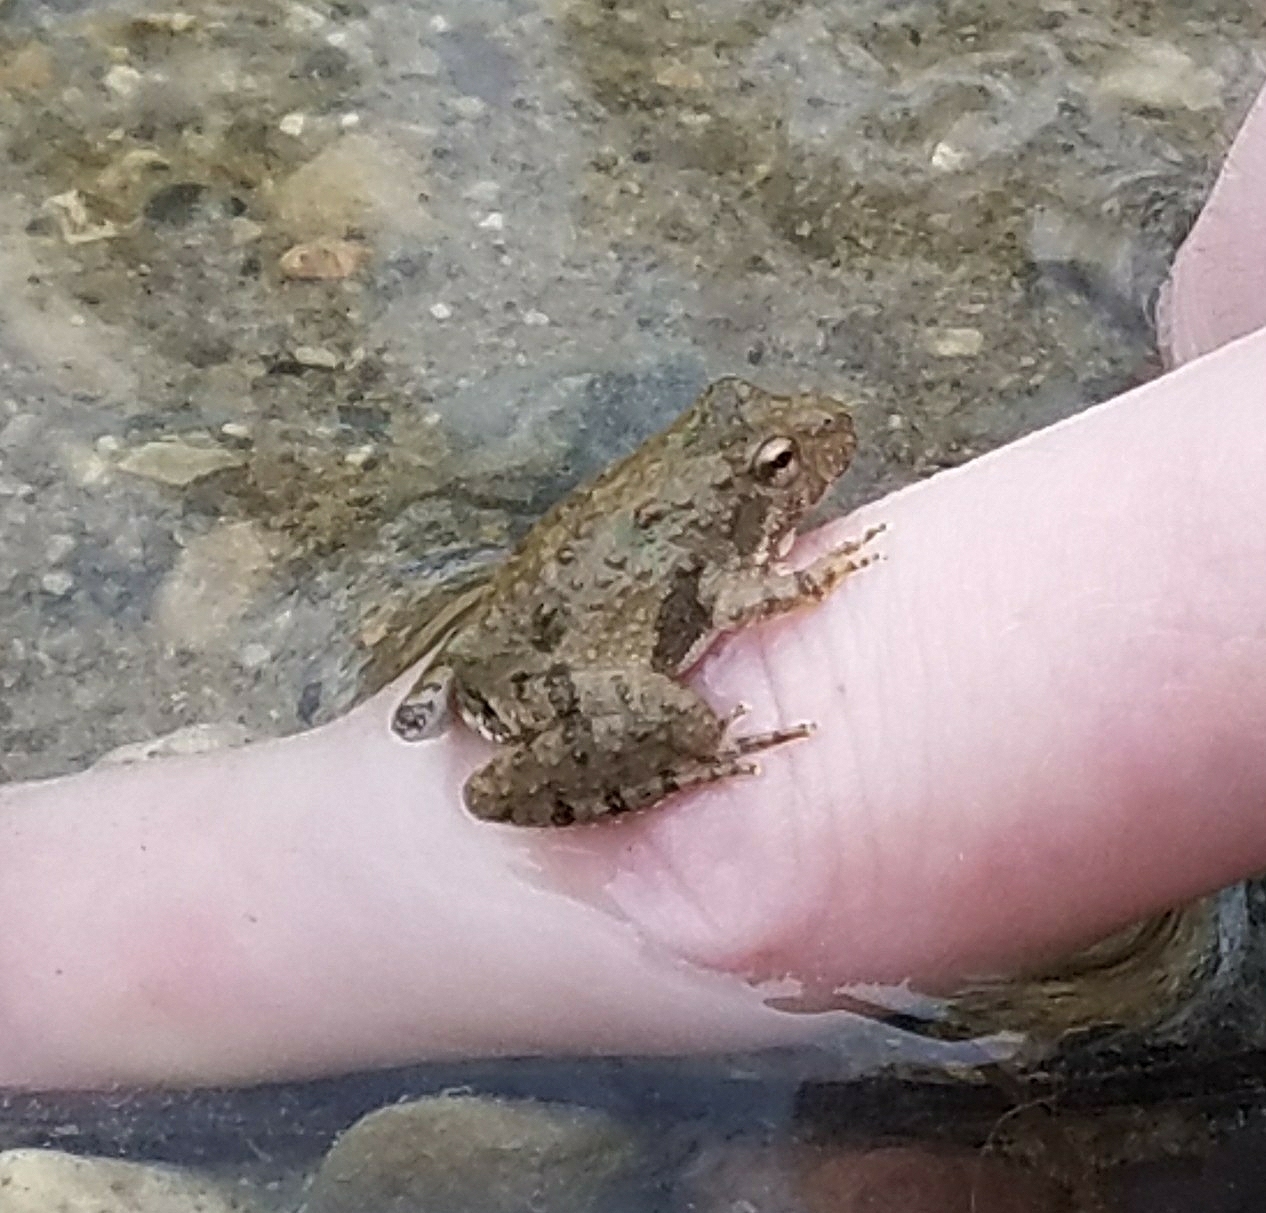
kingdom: Animalia
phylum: Chordata
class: Amphibia
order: Anura
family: Hylidae
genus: Acris
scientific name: Acris blanchardi
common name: Blanchard's cricket frog
